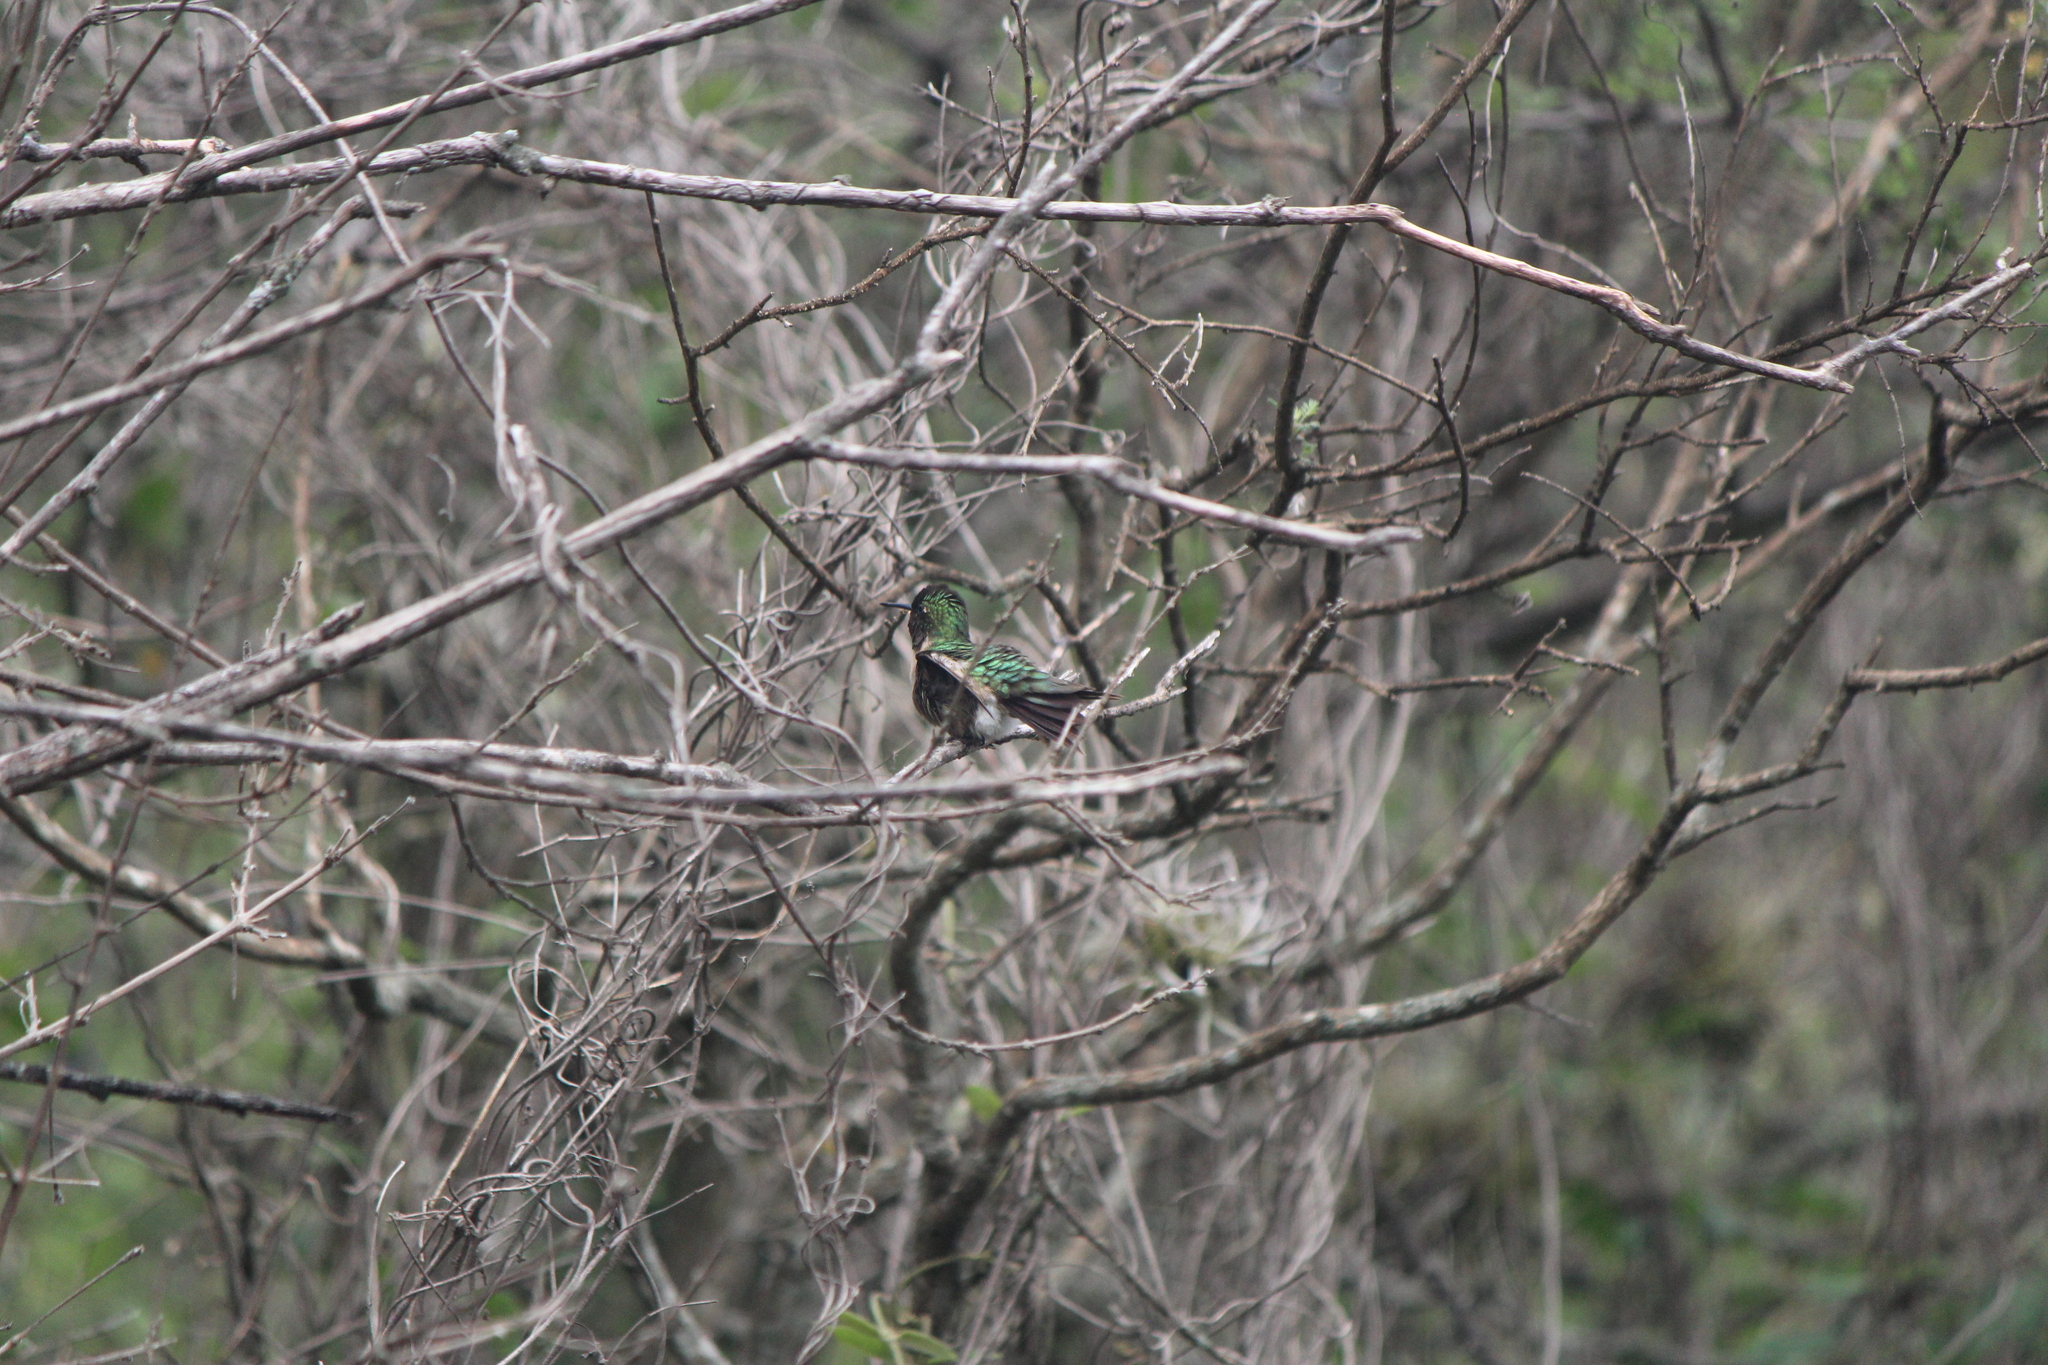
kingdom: Animalia
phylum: Chordata
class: Aves
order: Apodiformes
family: Trochilidae
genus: Archilochus
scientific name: Archilochus colubris
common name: Ruby-throated hummingbird
